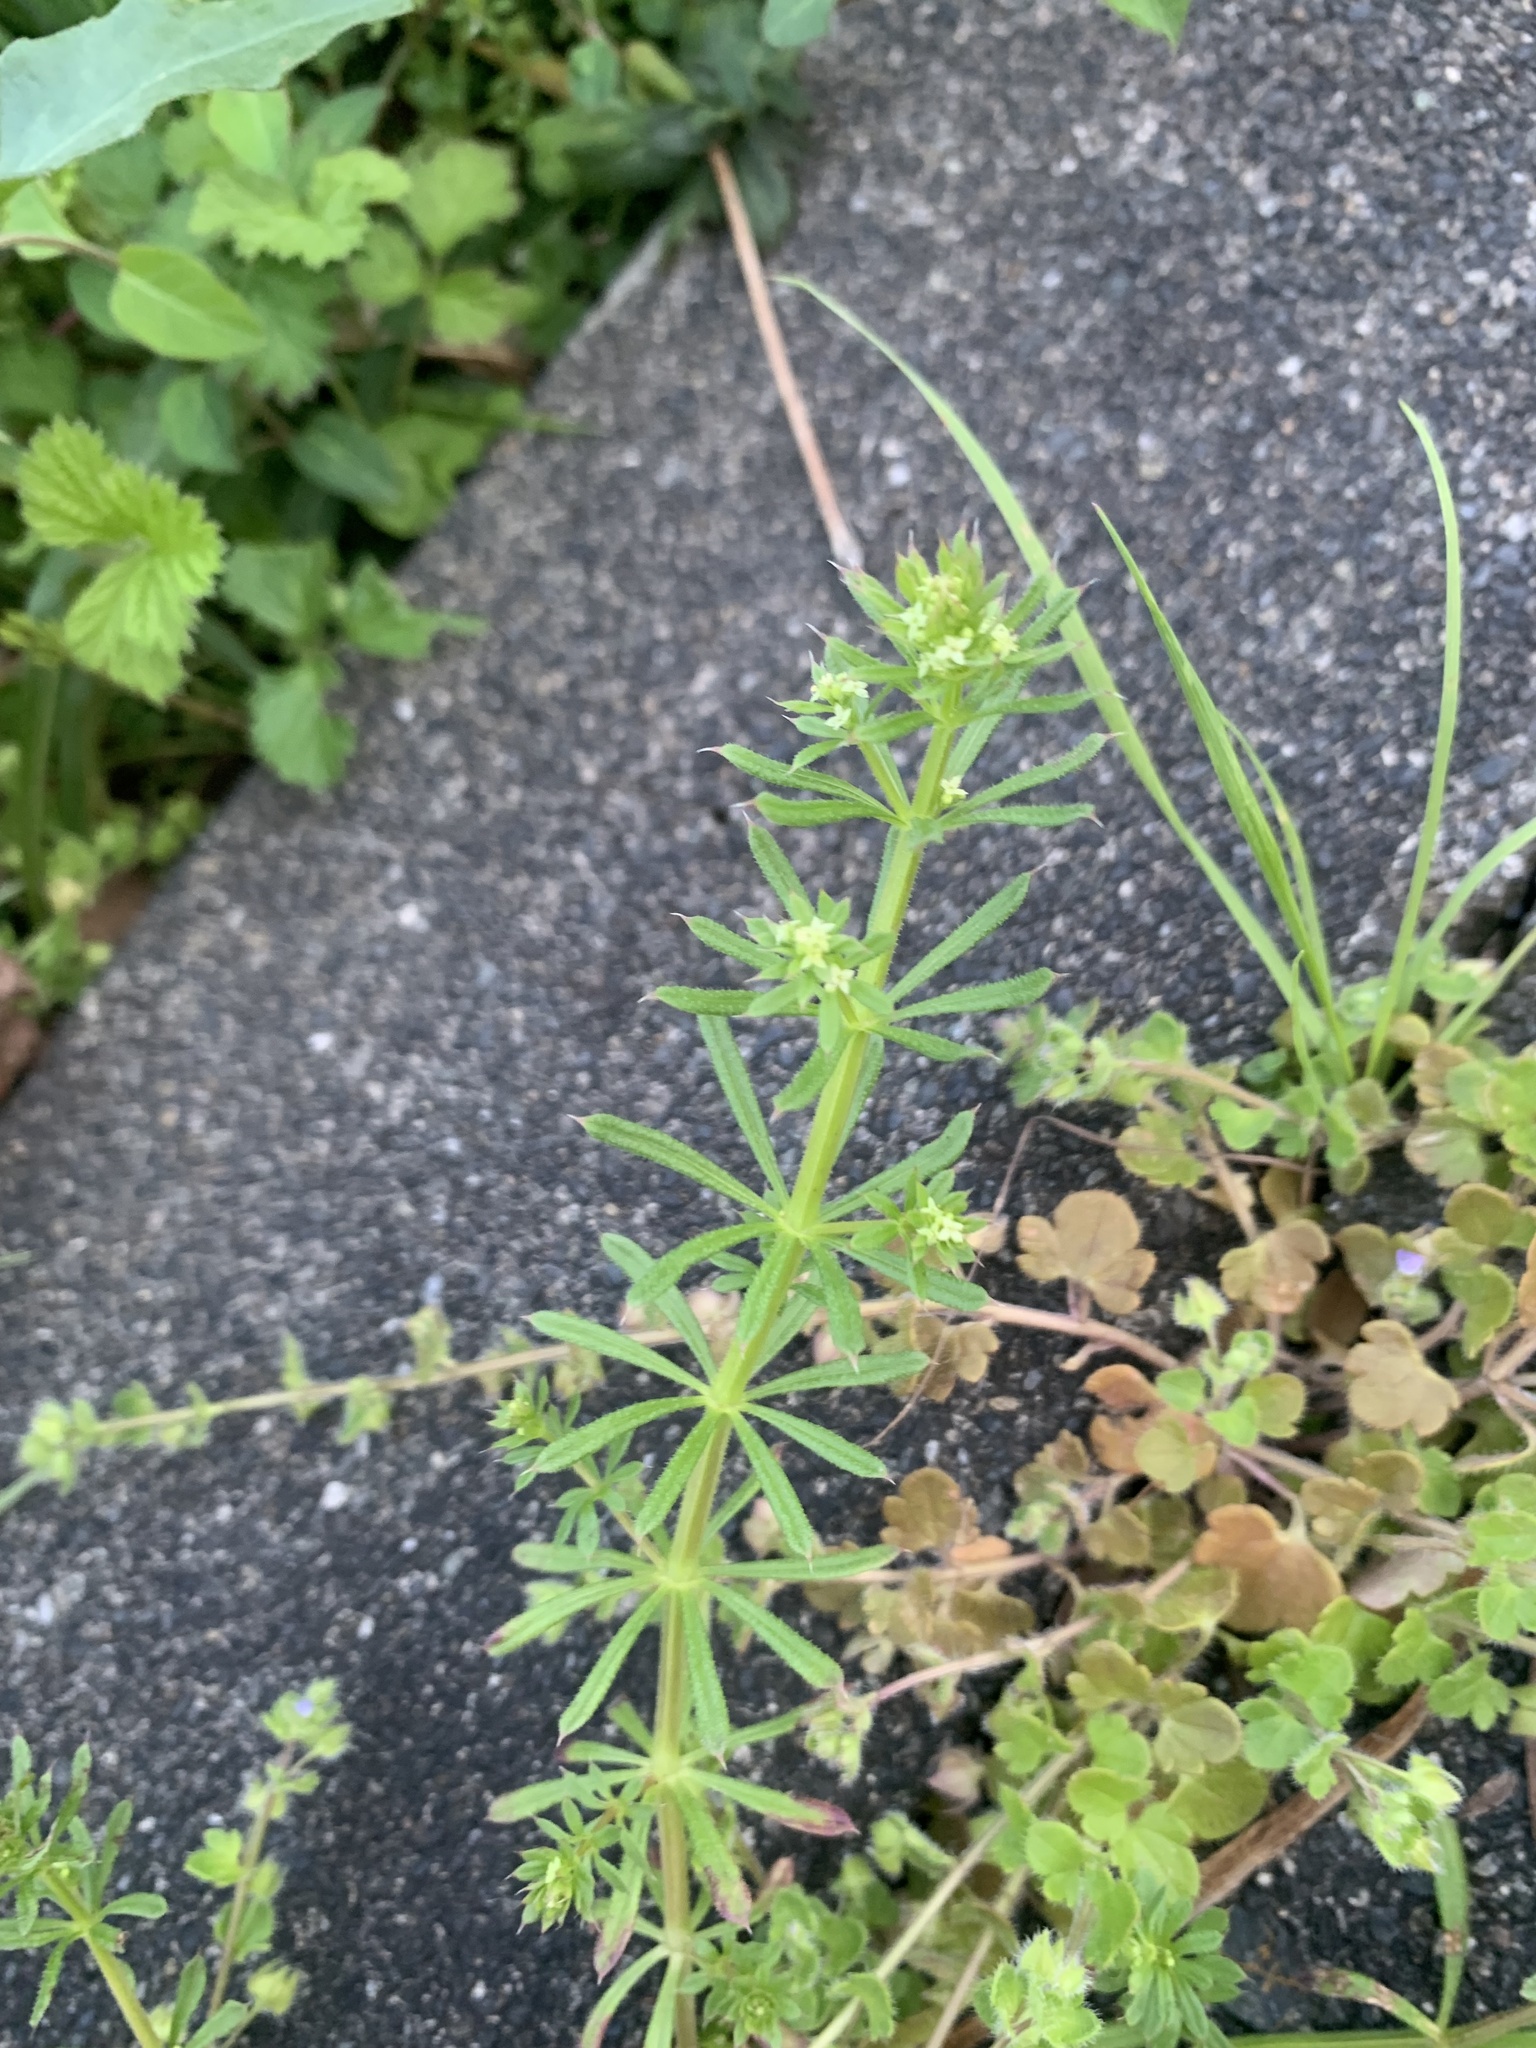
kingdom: Plantae
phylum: Tracheophyta
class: Magnoliopsida
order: Gentianales
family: Rubiaceae
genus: Galium
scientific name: Galium
